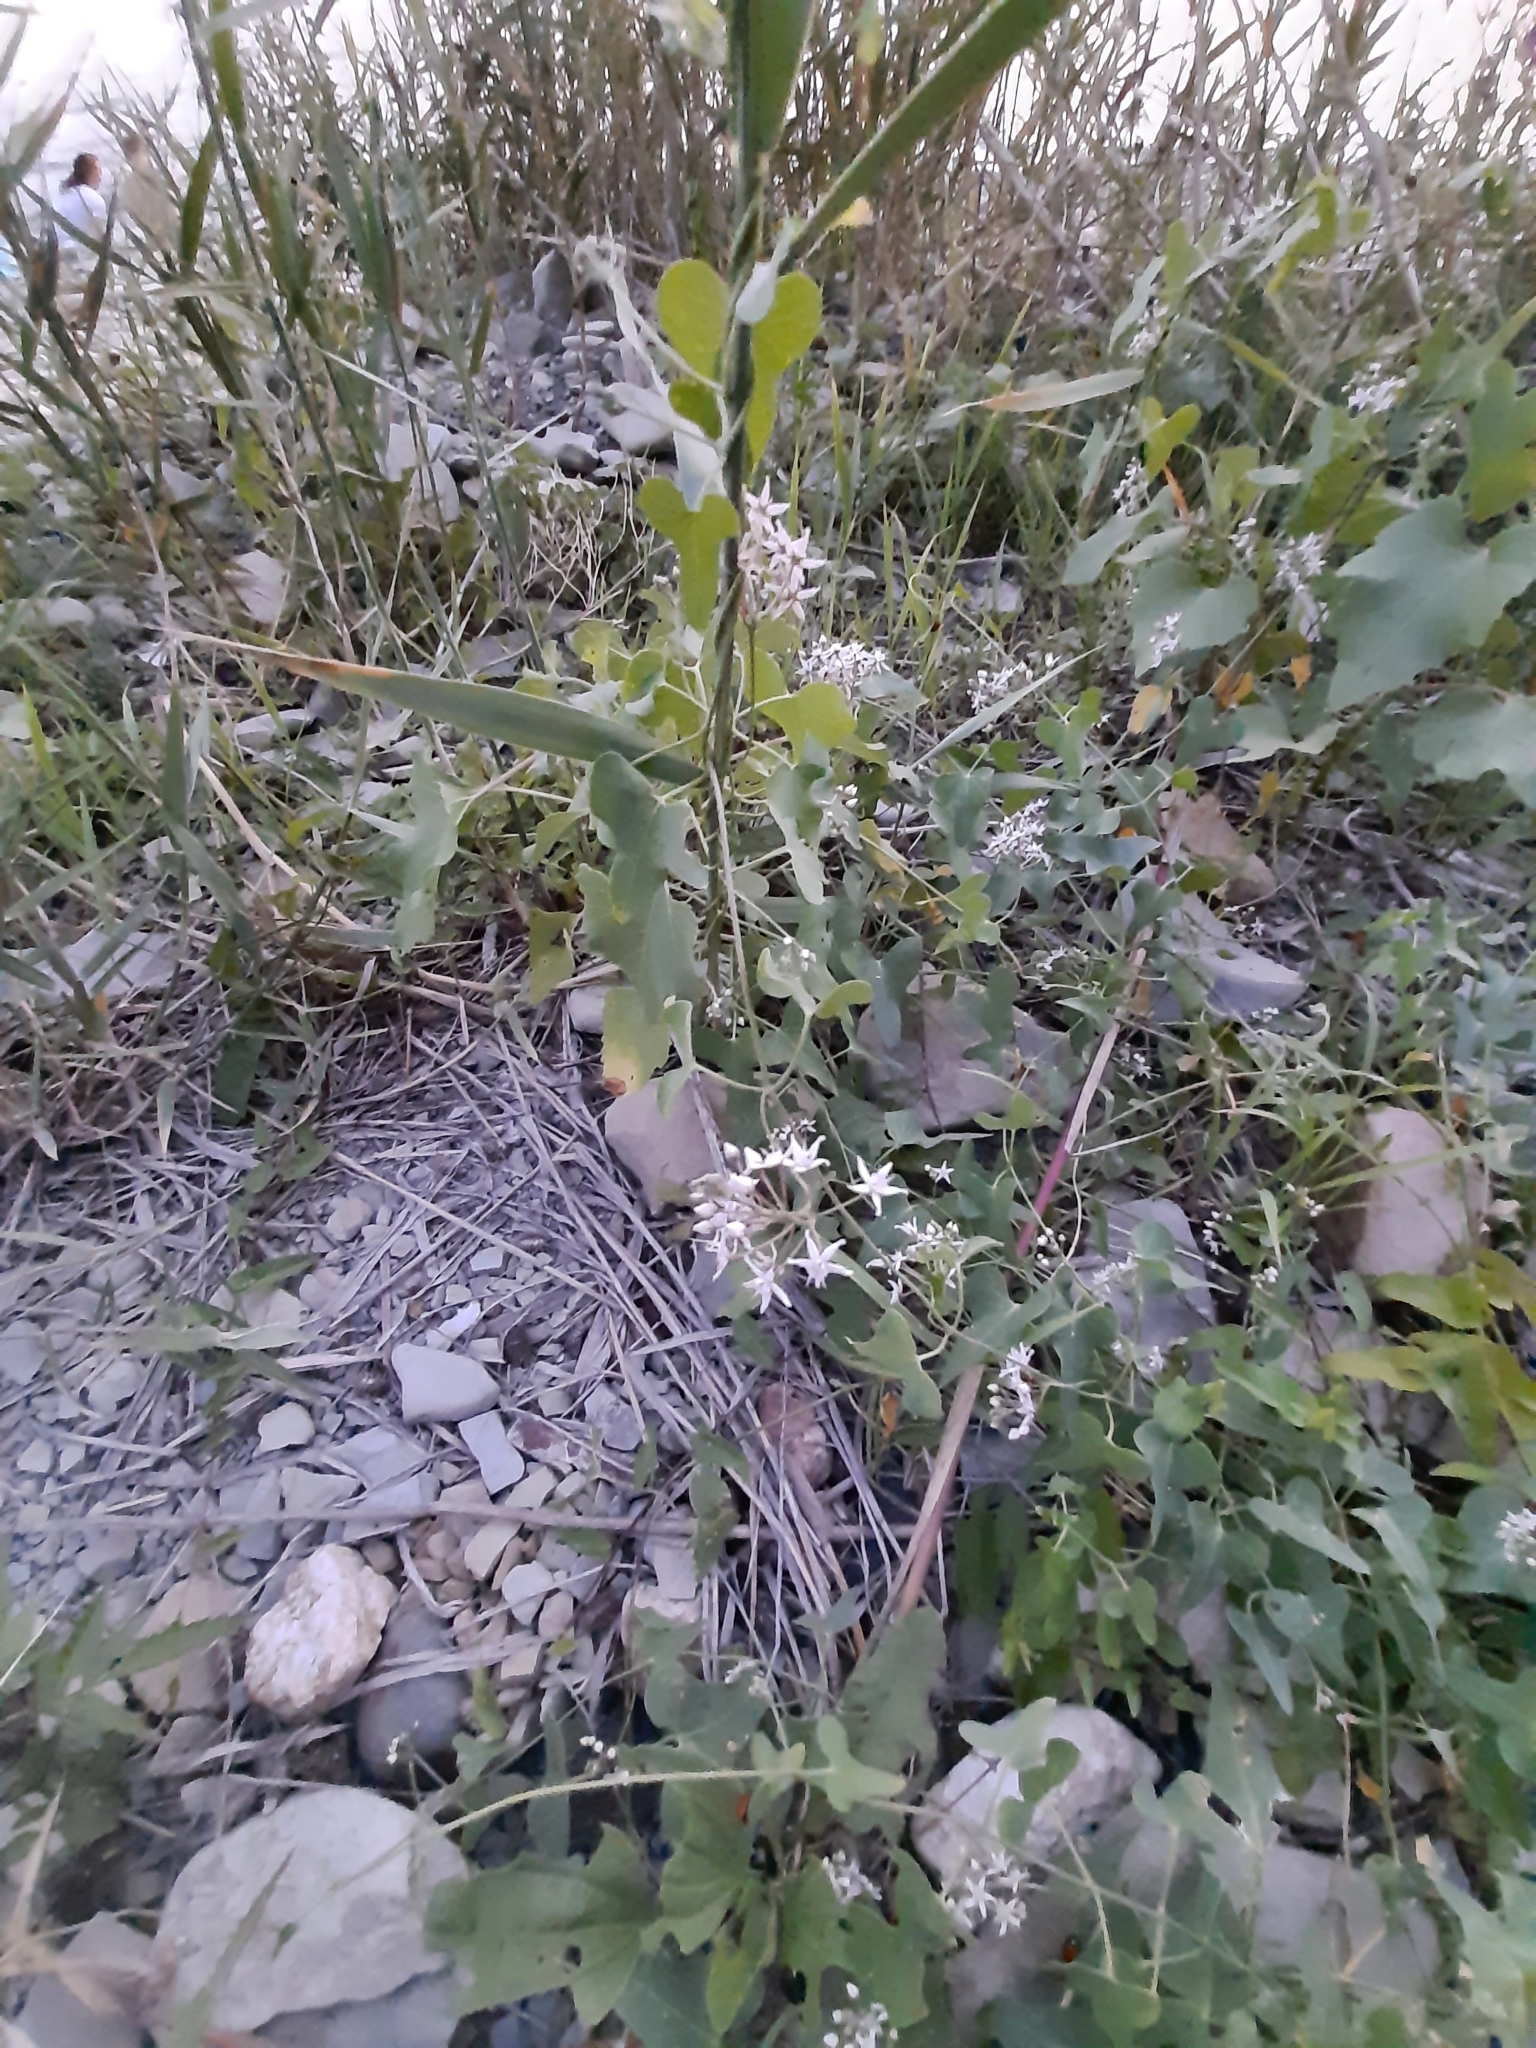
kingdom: Plantae
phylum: Tracheophyta
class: Magnoliopsida
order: Gentianales
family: Apocynaceae
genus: Cynanchum
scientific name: Cynanchum acutum
